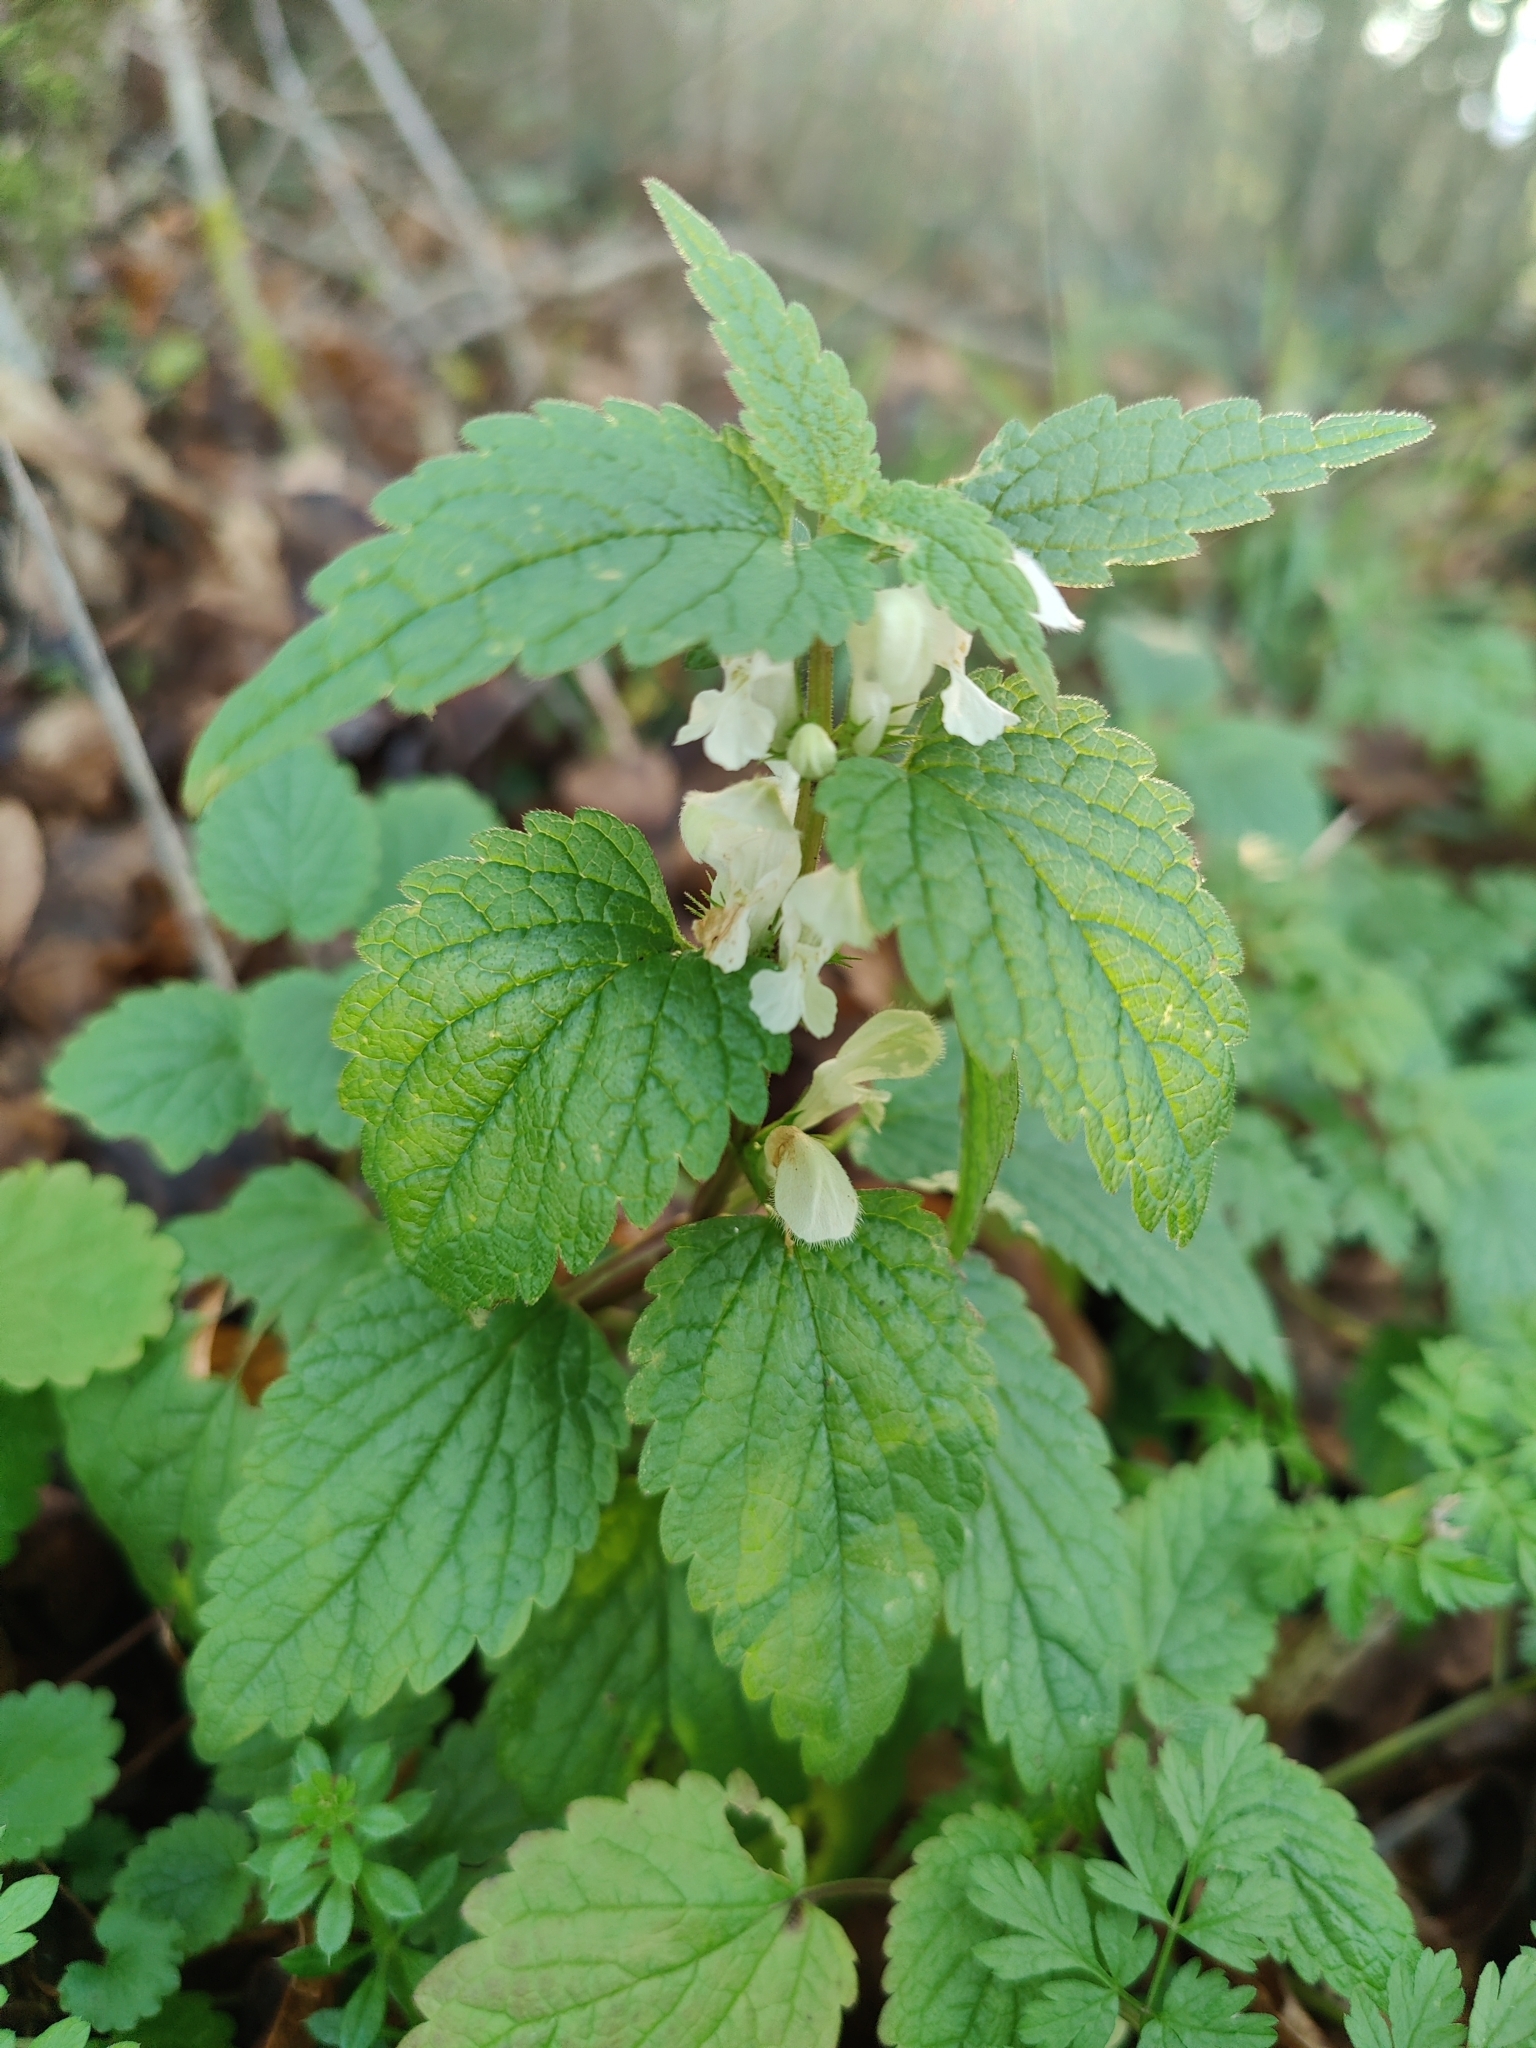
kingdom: Plantae
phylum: Tracheophyta
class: Magnoliopsida
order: Lamiales
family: Lamiaceae
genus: Lamium
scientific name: Lamium album
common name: White dead-nettle
